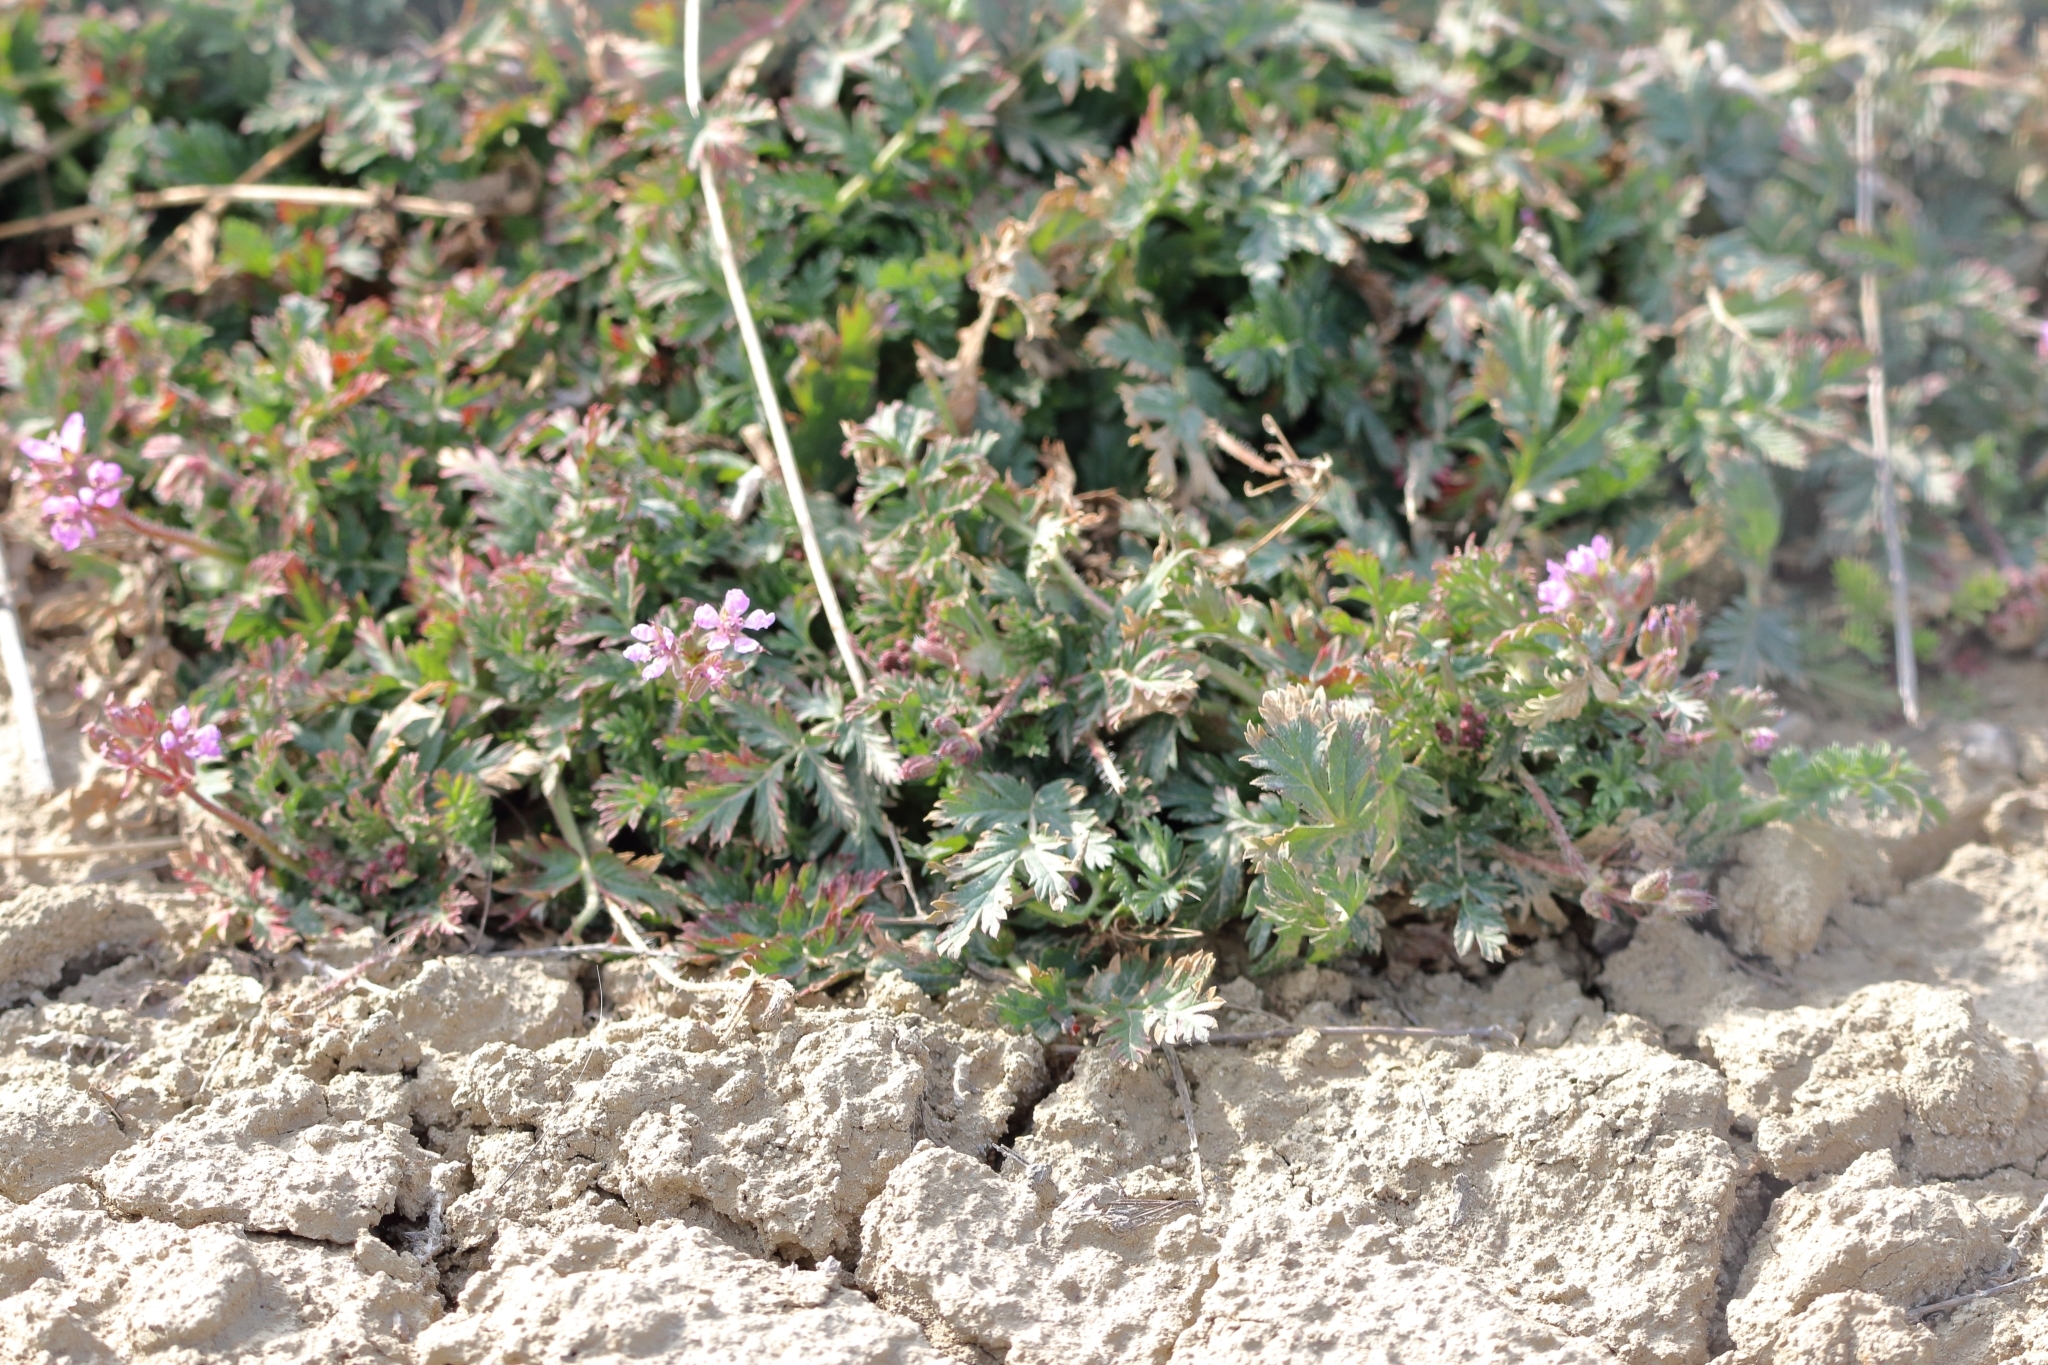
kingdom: Plantae
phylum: Tracheophyta
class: Magnoliopsida
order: Geraniales
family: Geraniaceae
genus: Erodium
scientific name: Erodium cicutarium
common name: Common stork's-bill
